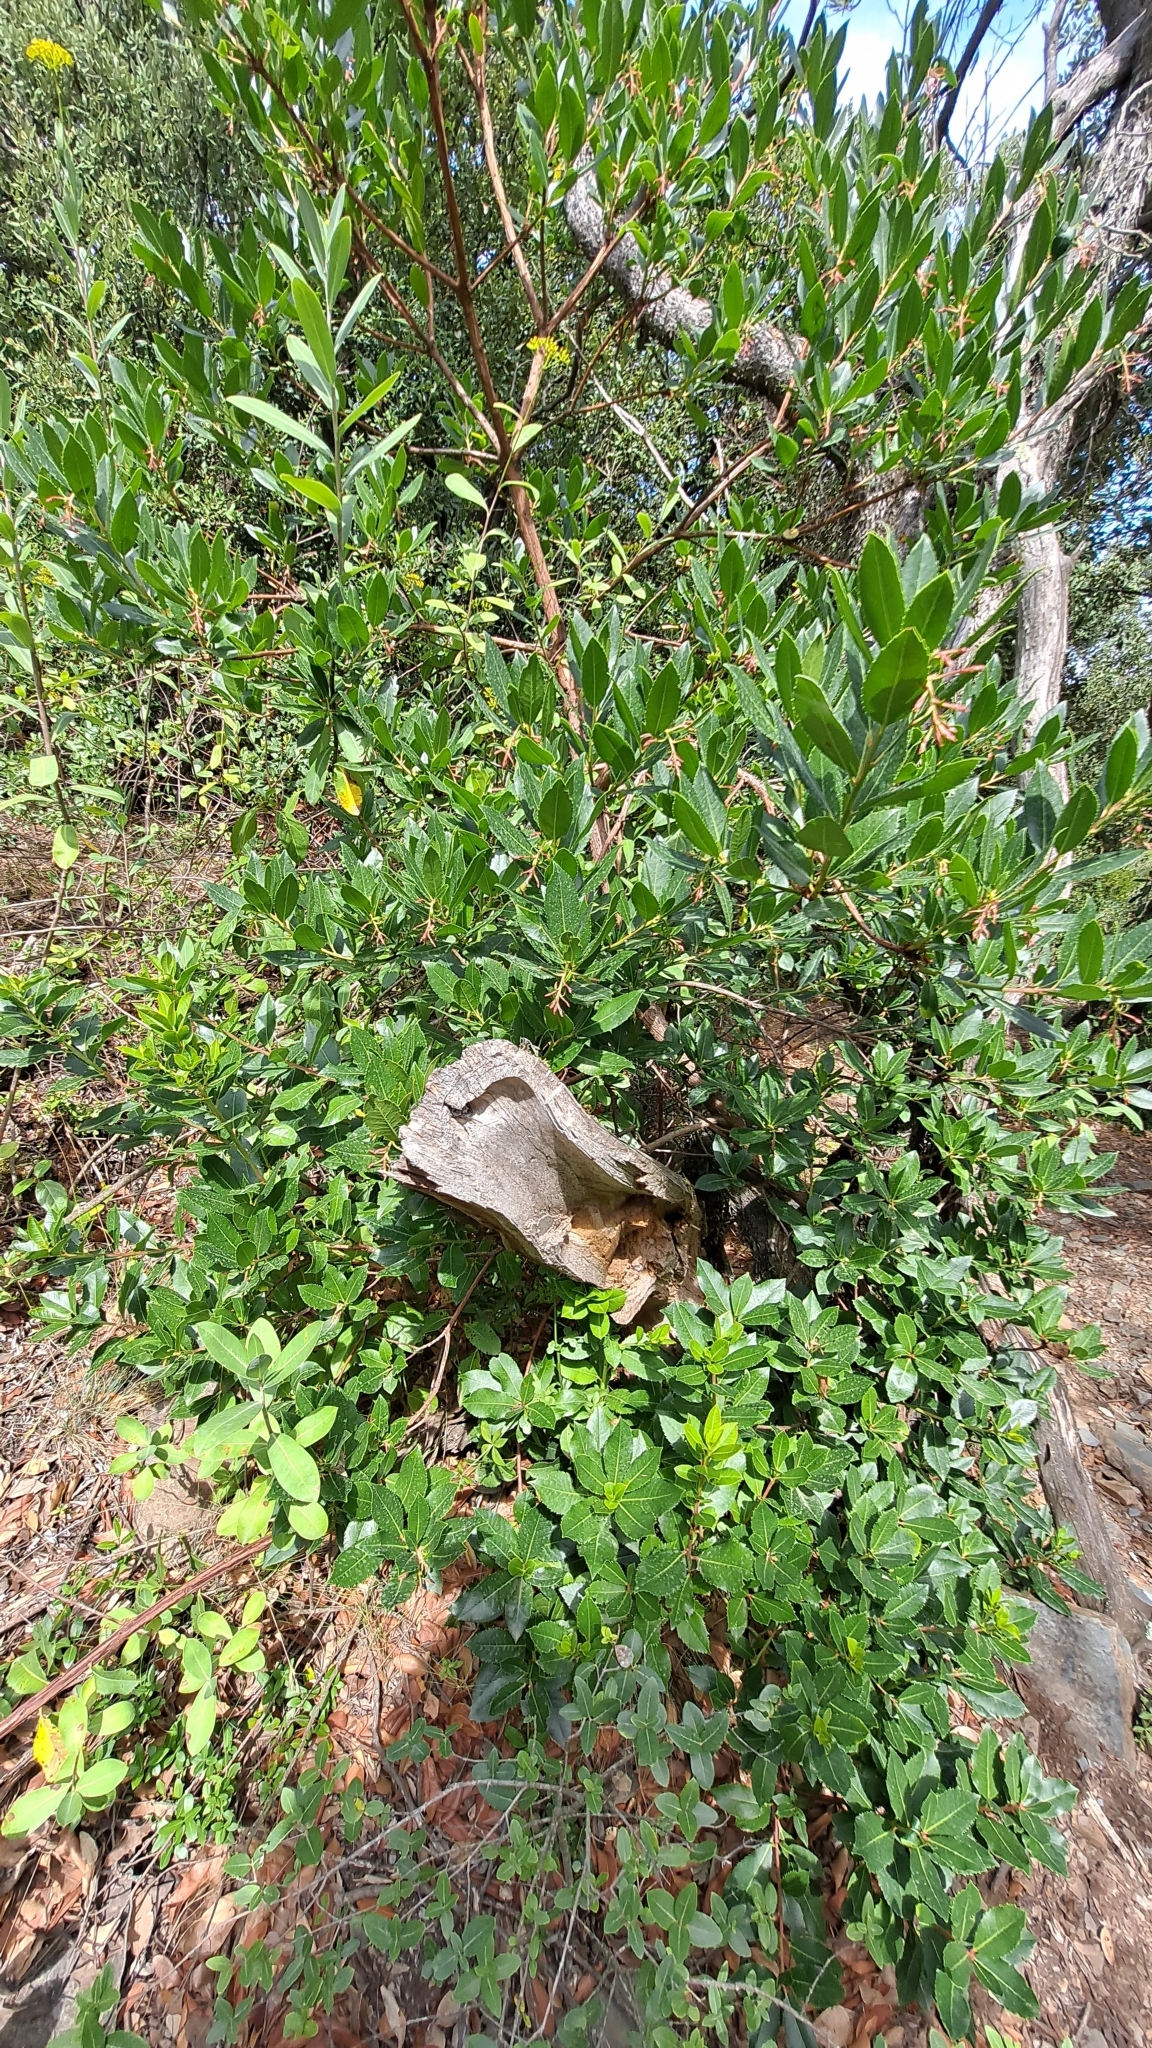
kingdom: Plantae
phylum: Tracheophyta
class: Magnoliopsida
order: Ericales
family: Ericaceae
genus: Arbutus
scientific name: Arbutus unedo
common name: Strawberry-tree
